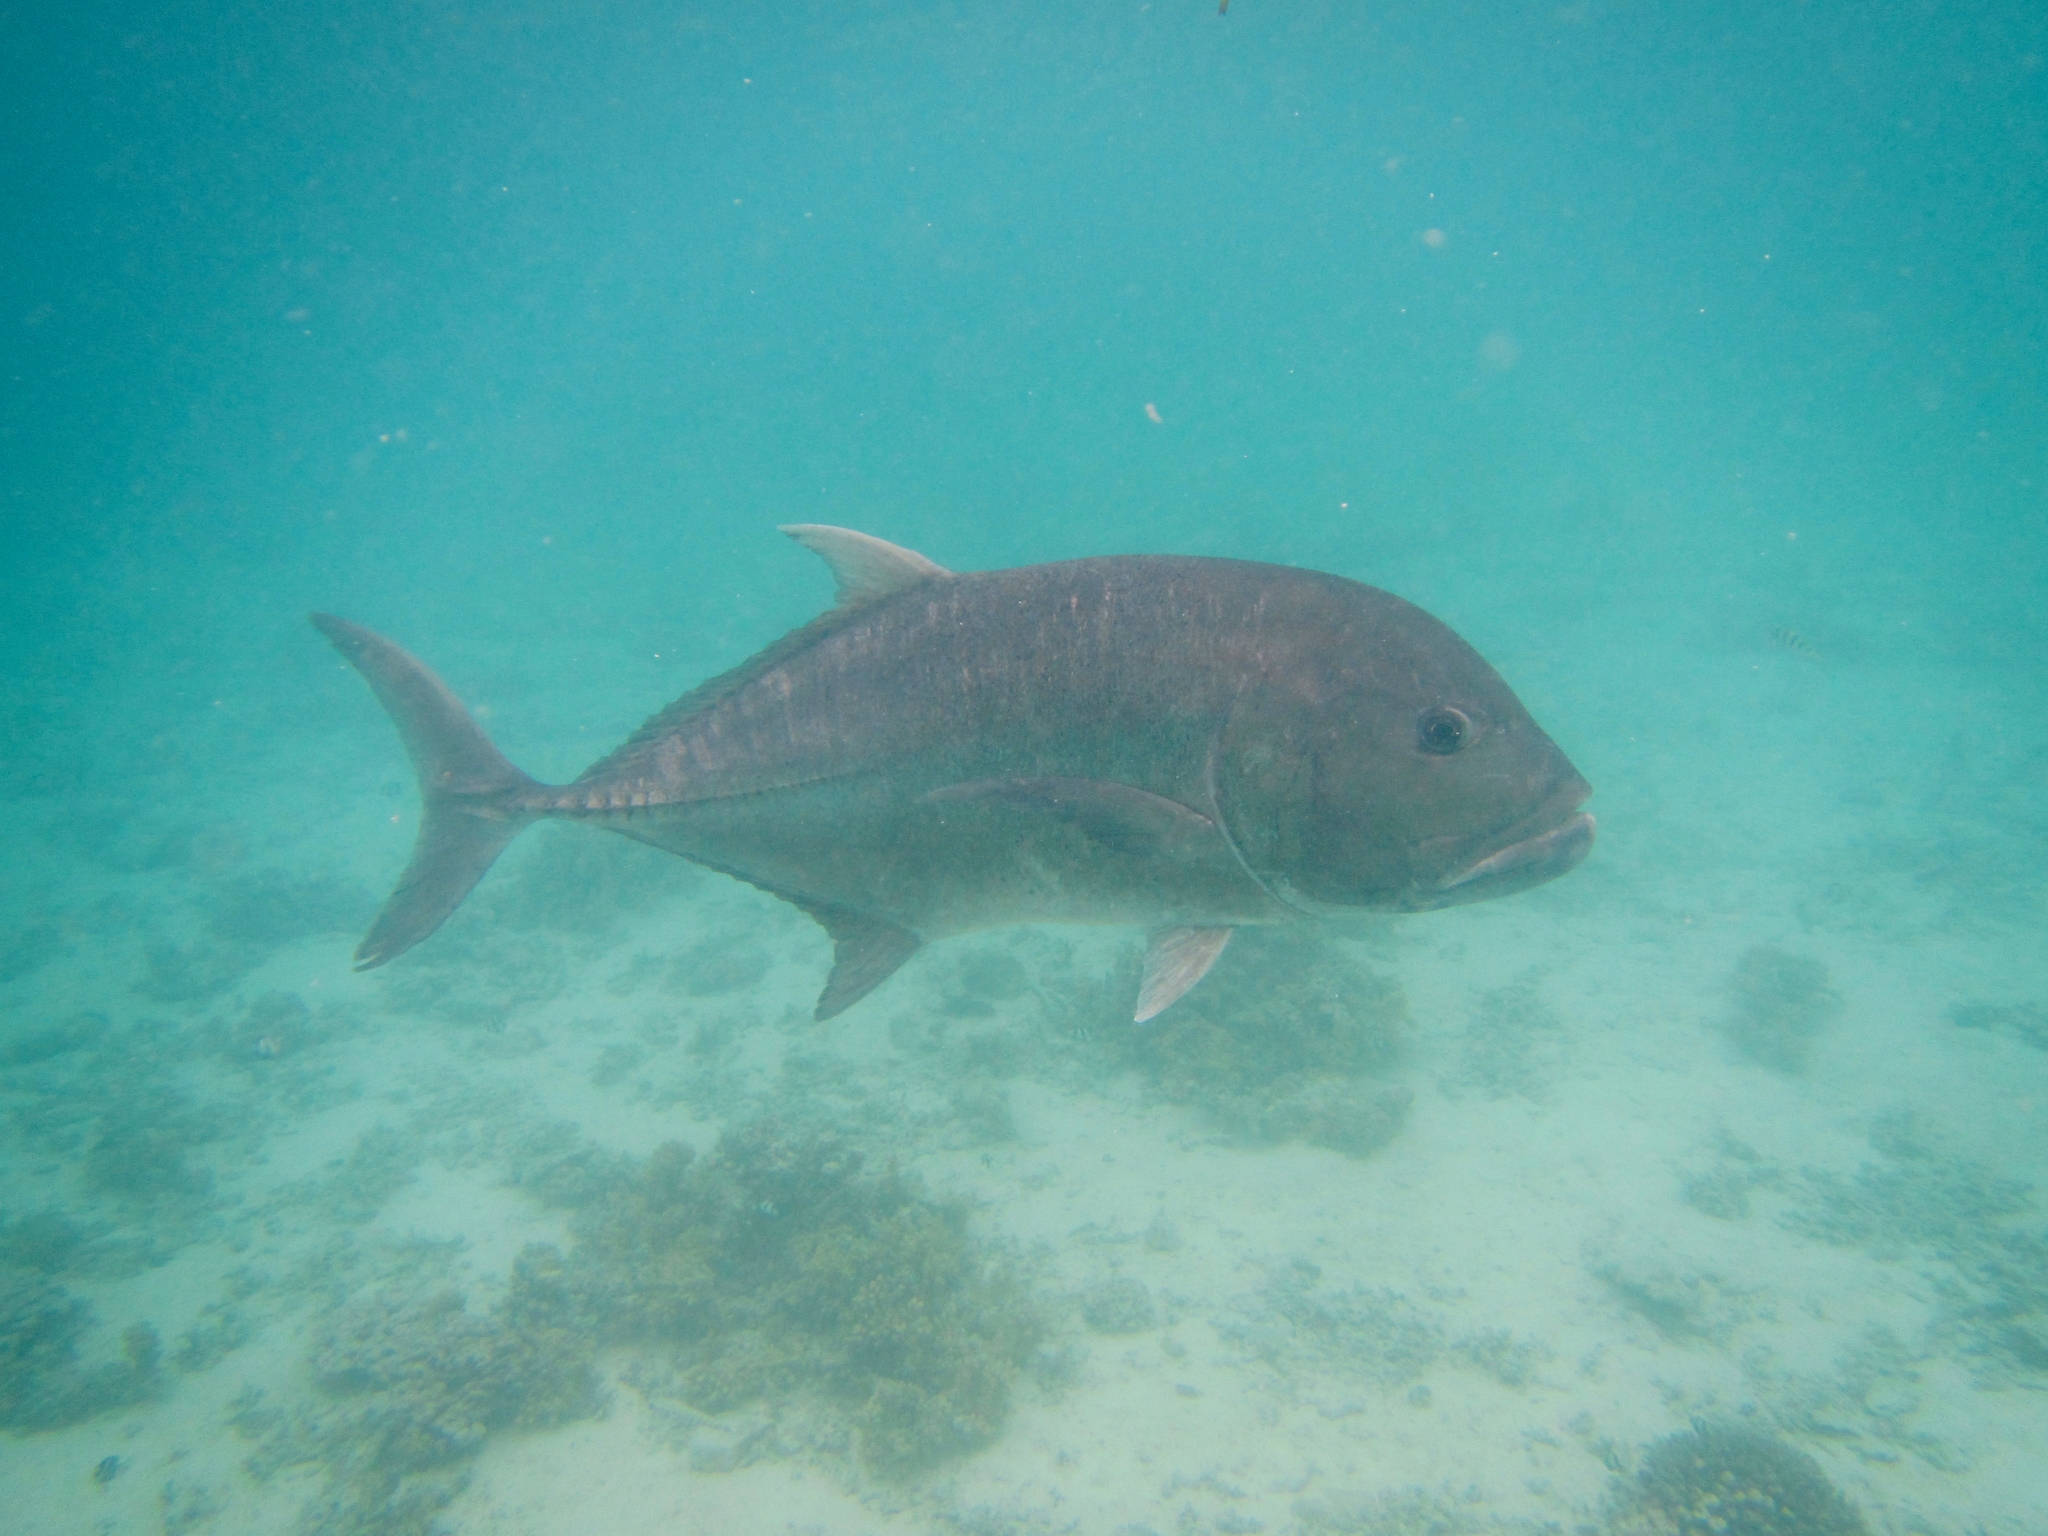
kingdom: Animalia
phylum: Chordata
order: Perciformes
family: Carangidae
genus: Caranx
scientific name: Caranx ignobilis
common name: Giant trevally
